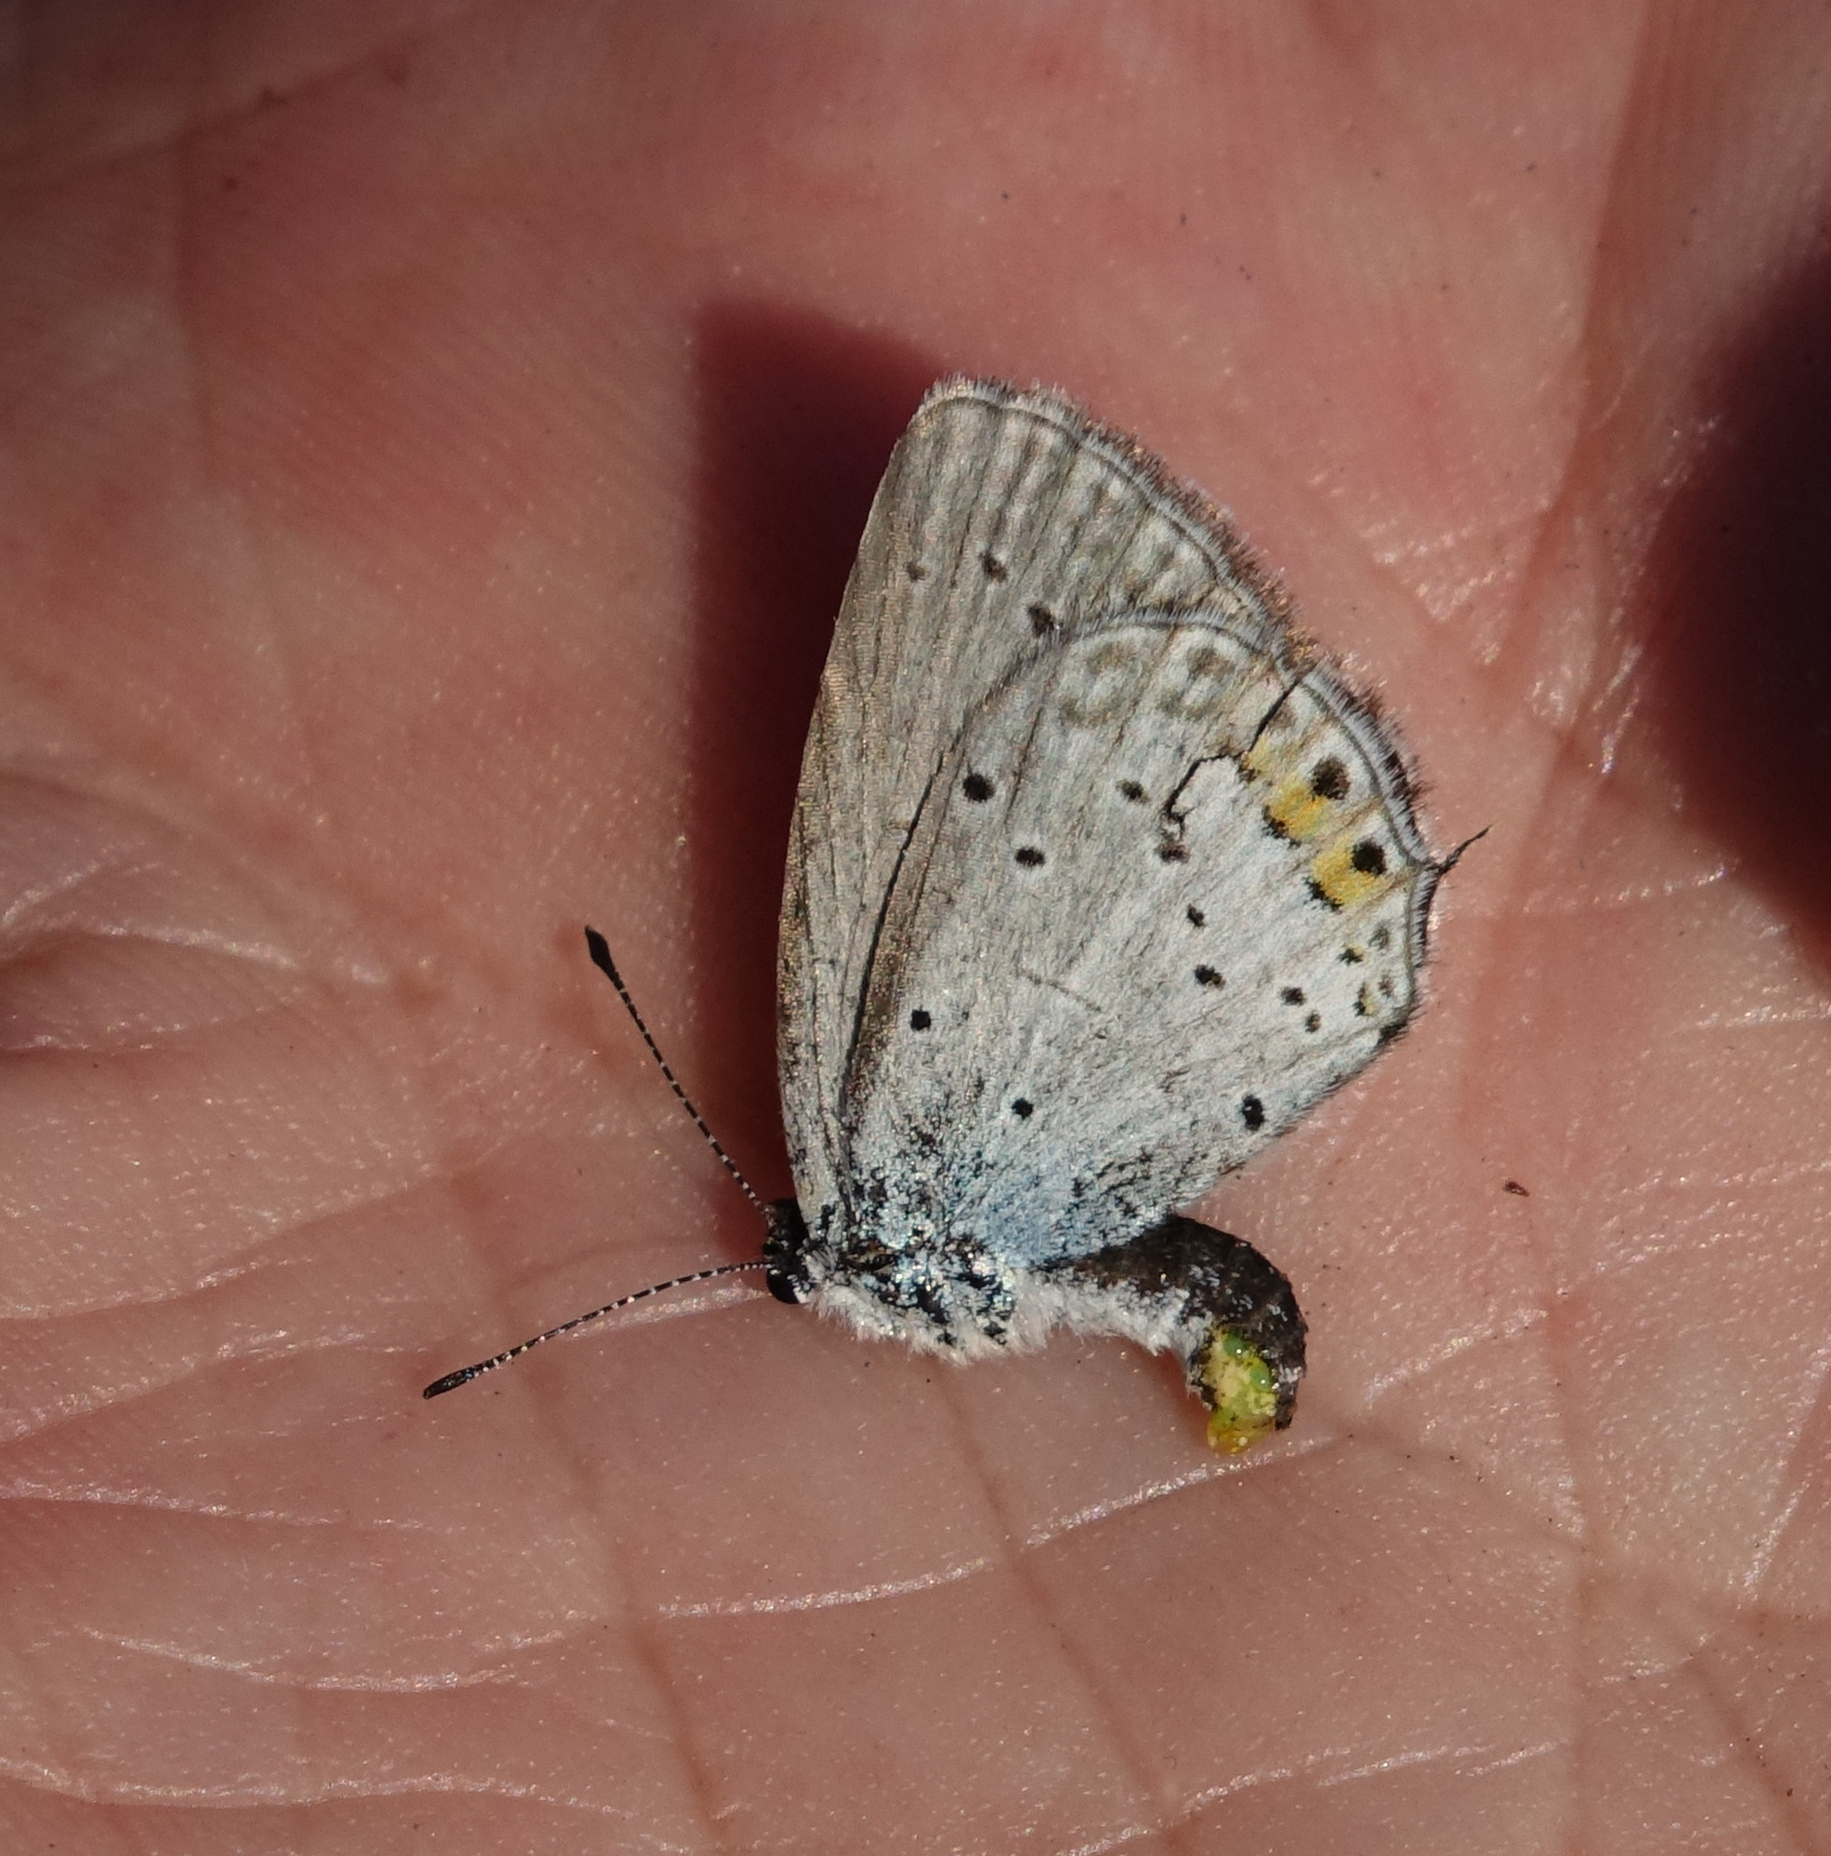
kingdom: Animalia
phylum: Arthropoda
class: Insecta
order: Lepidoptera
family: Lycaenidae
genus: Elkalyce
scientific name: Elkalyce argiades
